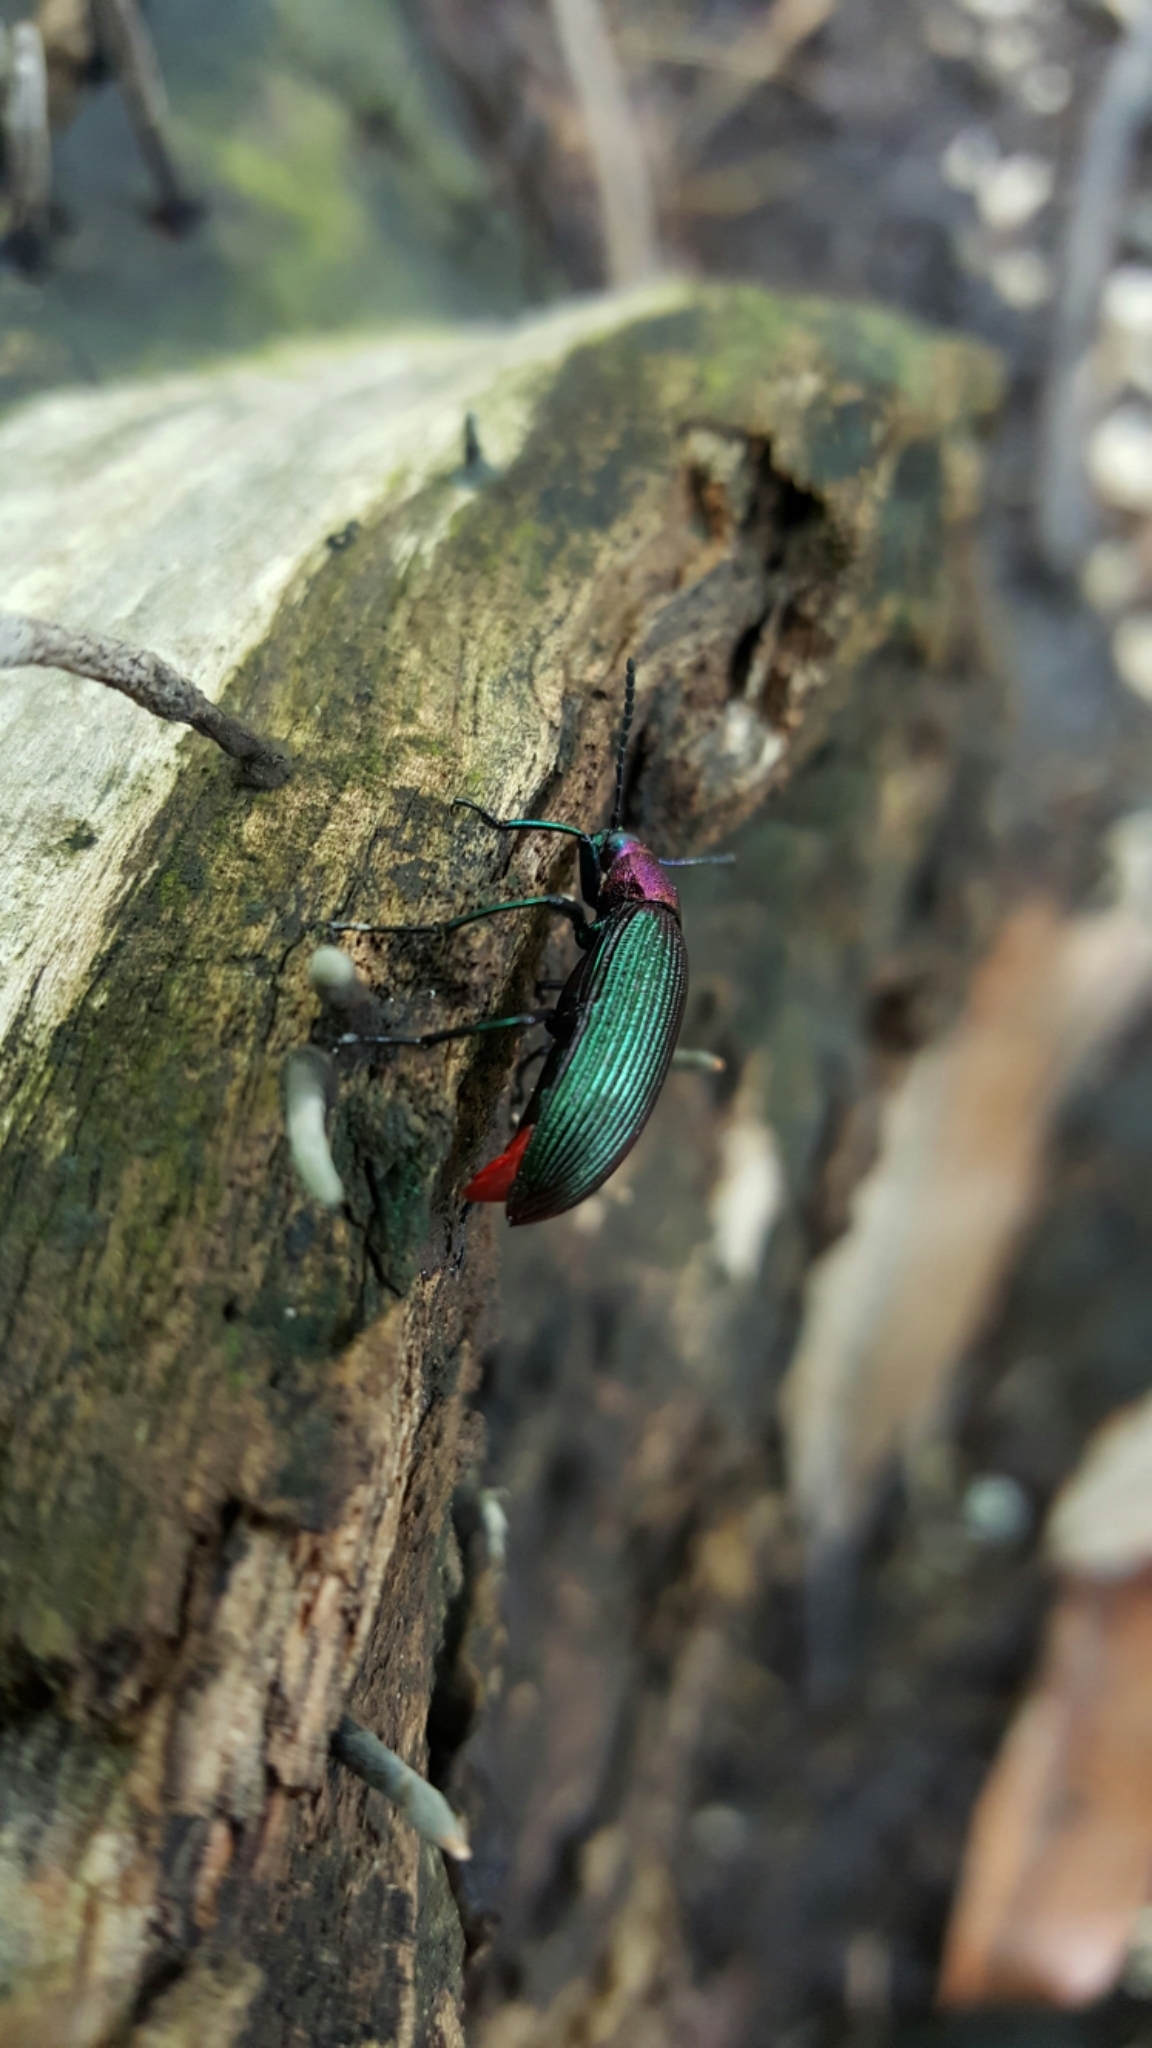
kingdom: Animalia
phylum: Arthropoda
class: Insecta
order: Coleoptera
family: Tenebrionidae
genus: Strongylium
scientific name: Strongylium auratum
